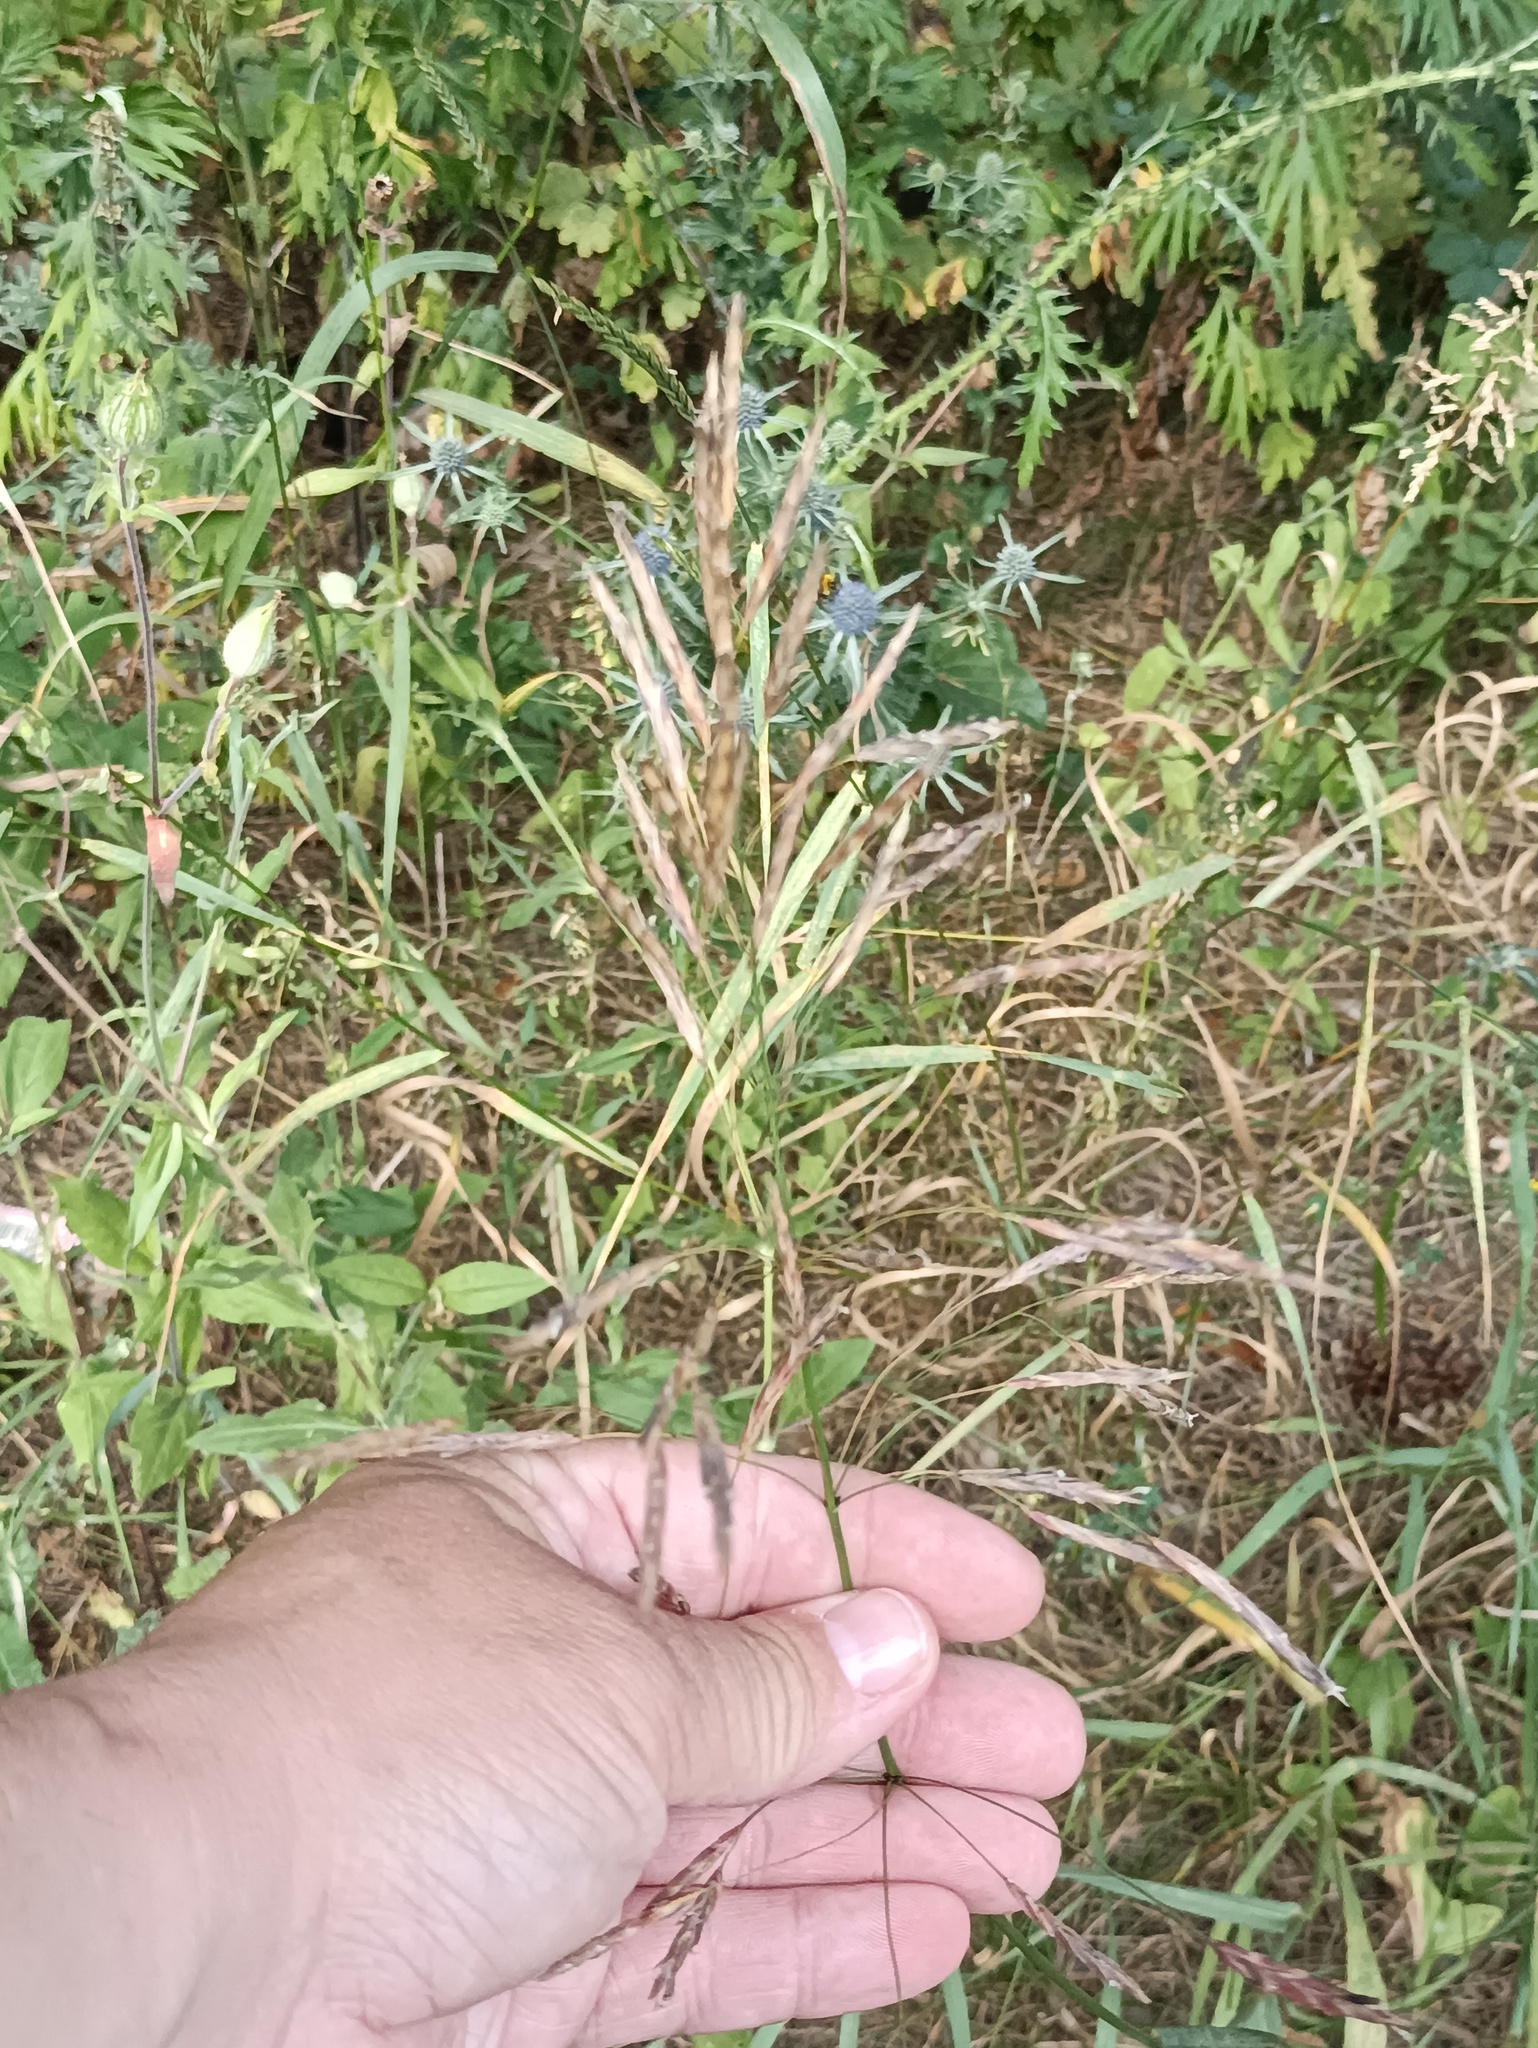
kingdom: Plantae
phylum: Tracheophyta
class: Liliopsida
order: Poales
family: Poaceae
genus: Bromus
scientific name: Bromus inermis
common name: Smooth brome
